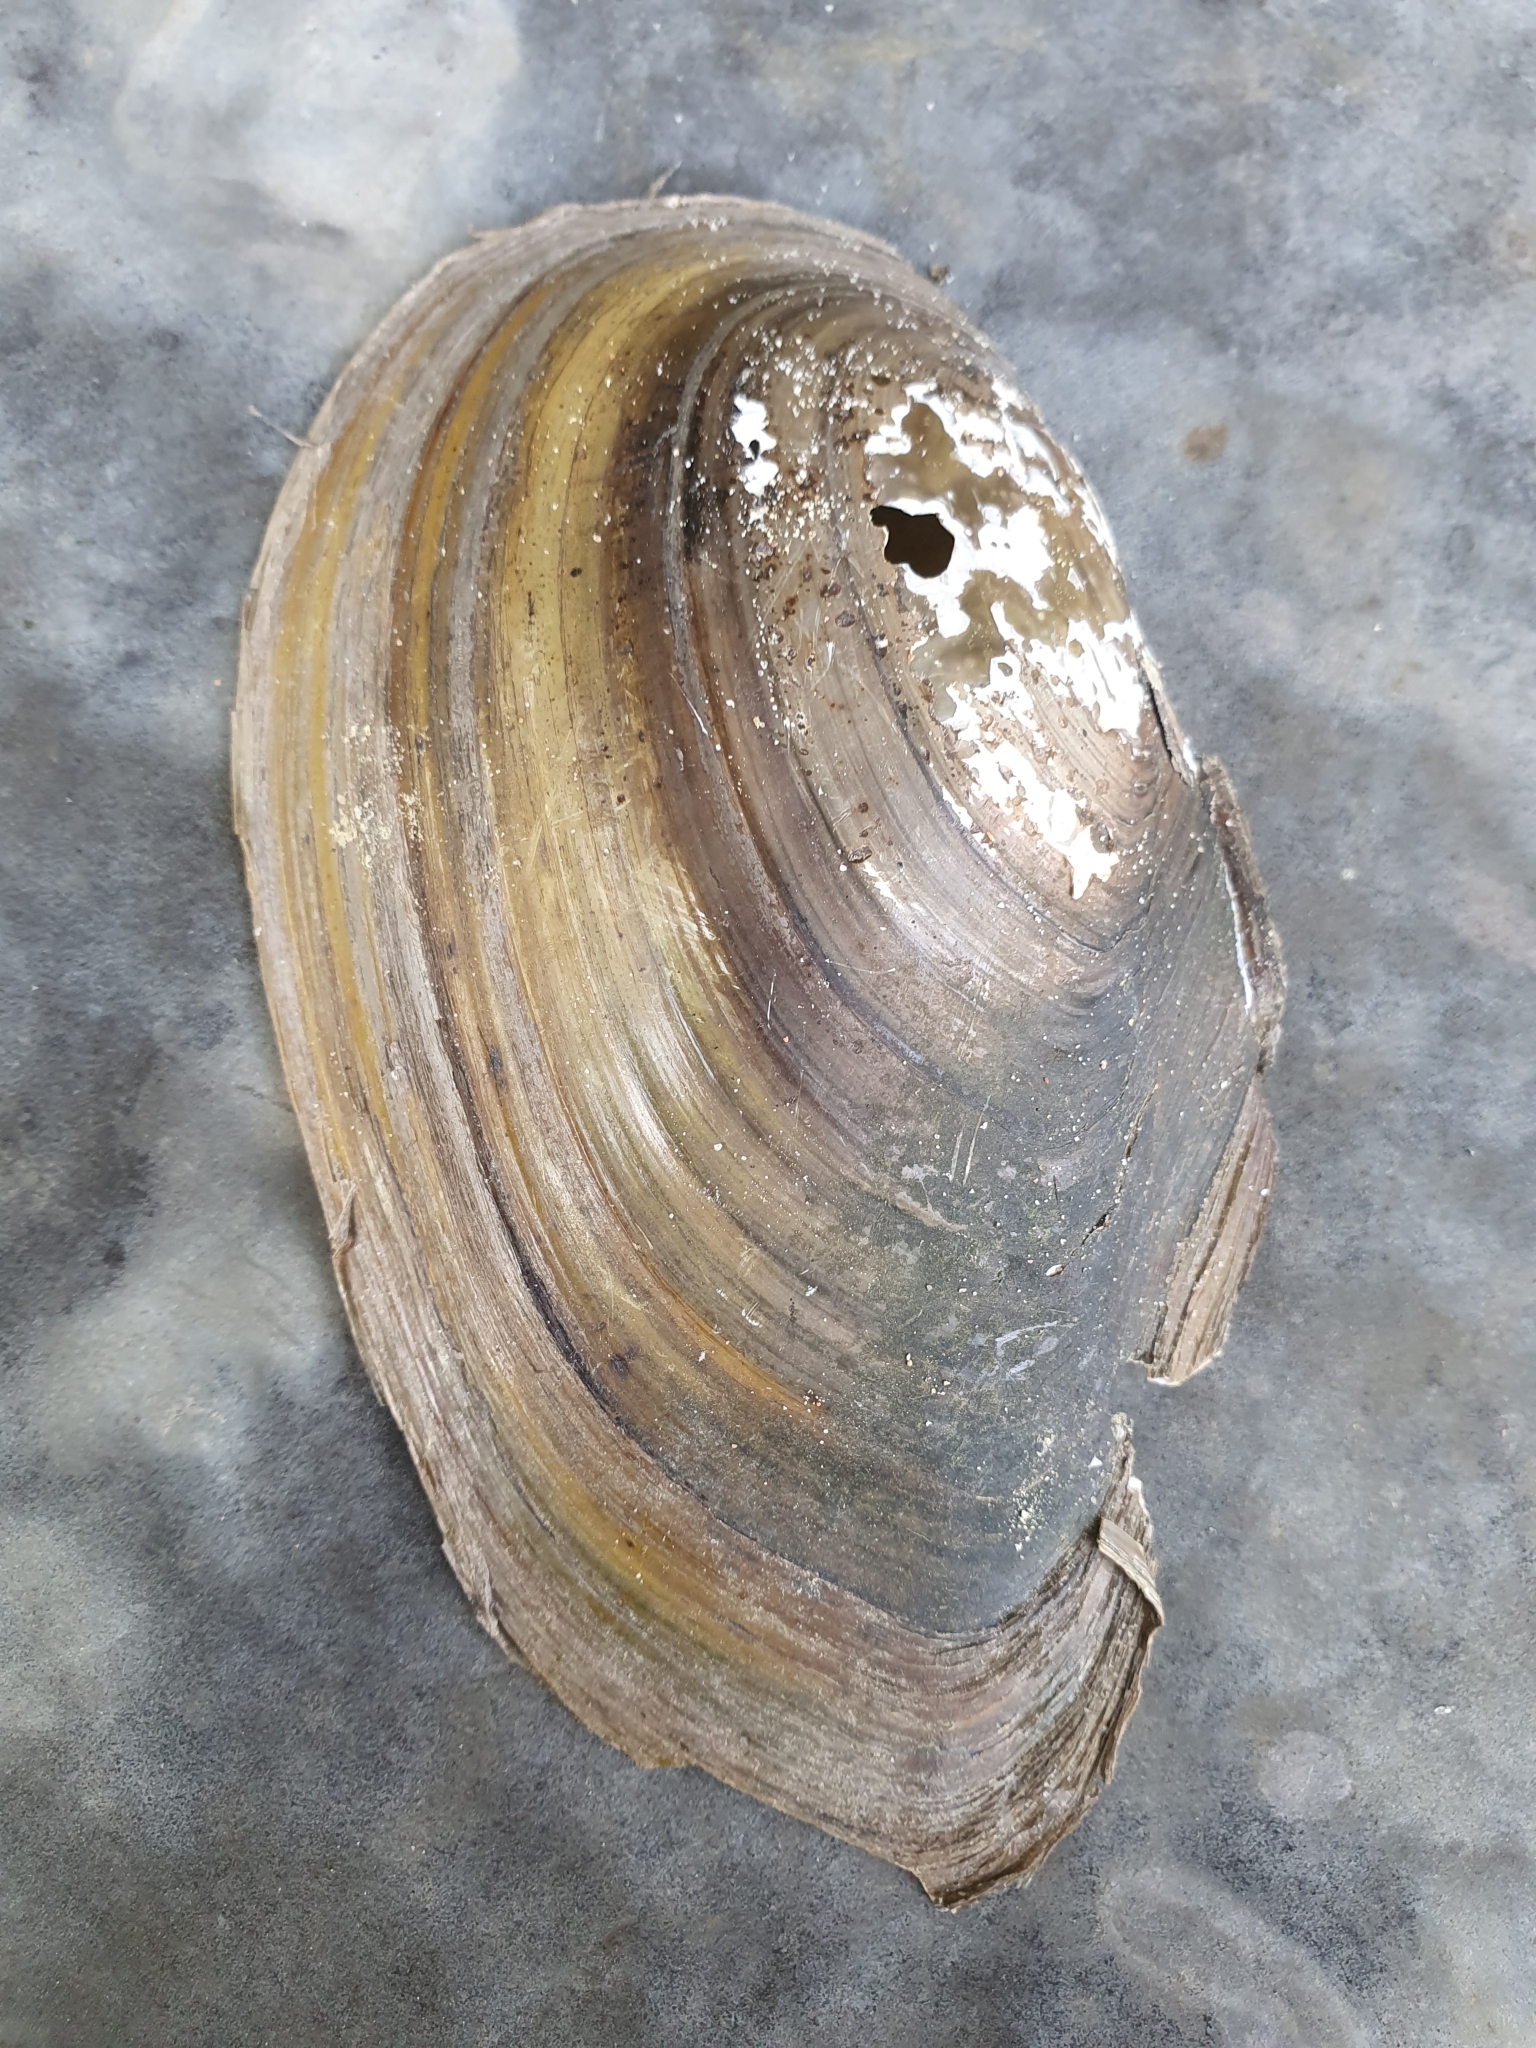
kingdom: Animalia
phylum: Mollusca
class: Bivalvia
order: Unionida
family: Unionidae
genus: Anodonta
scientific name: Anodonta cygnea
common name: Swan mussel
